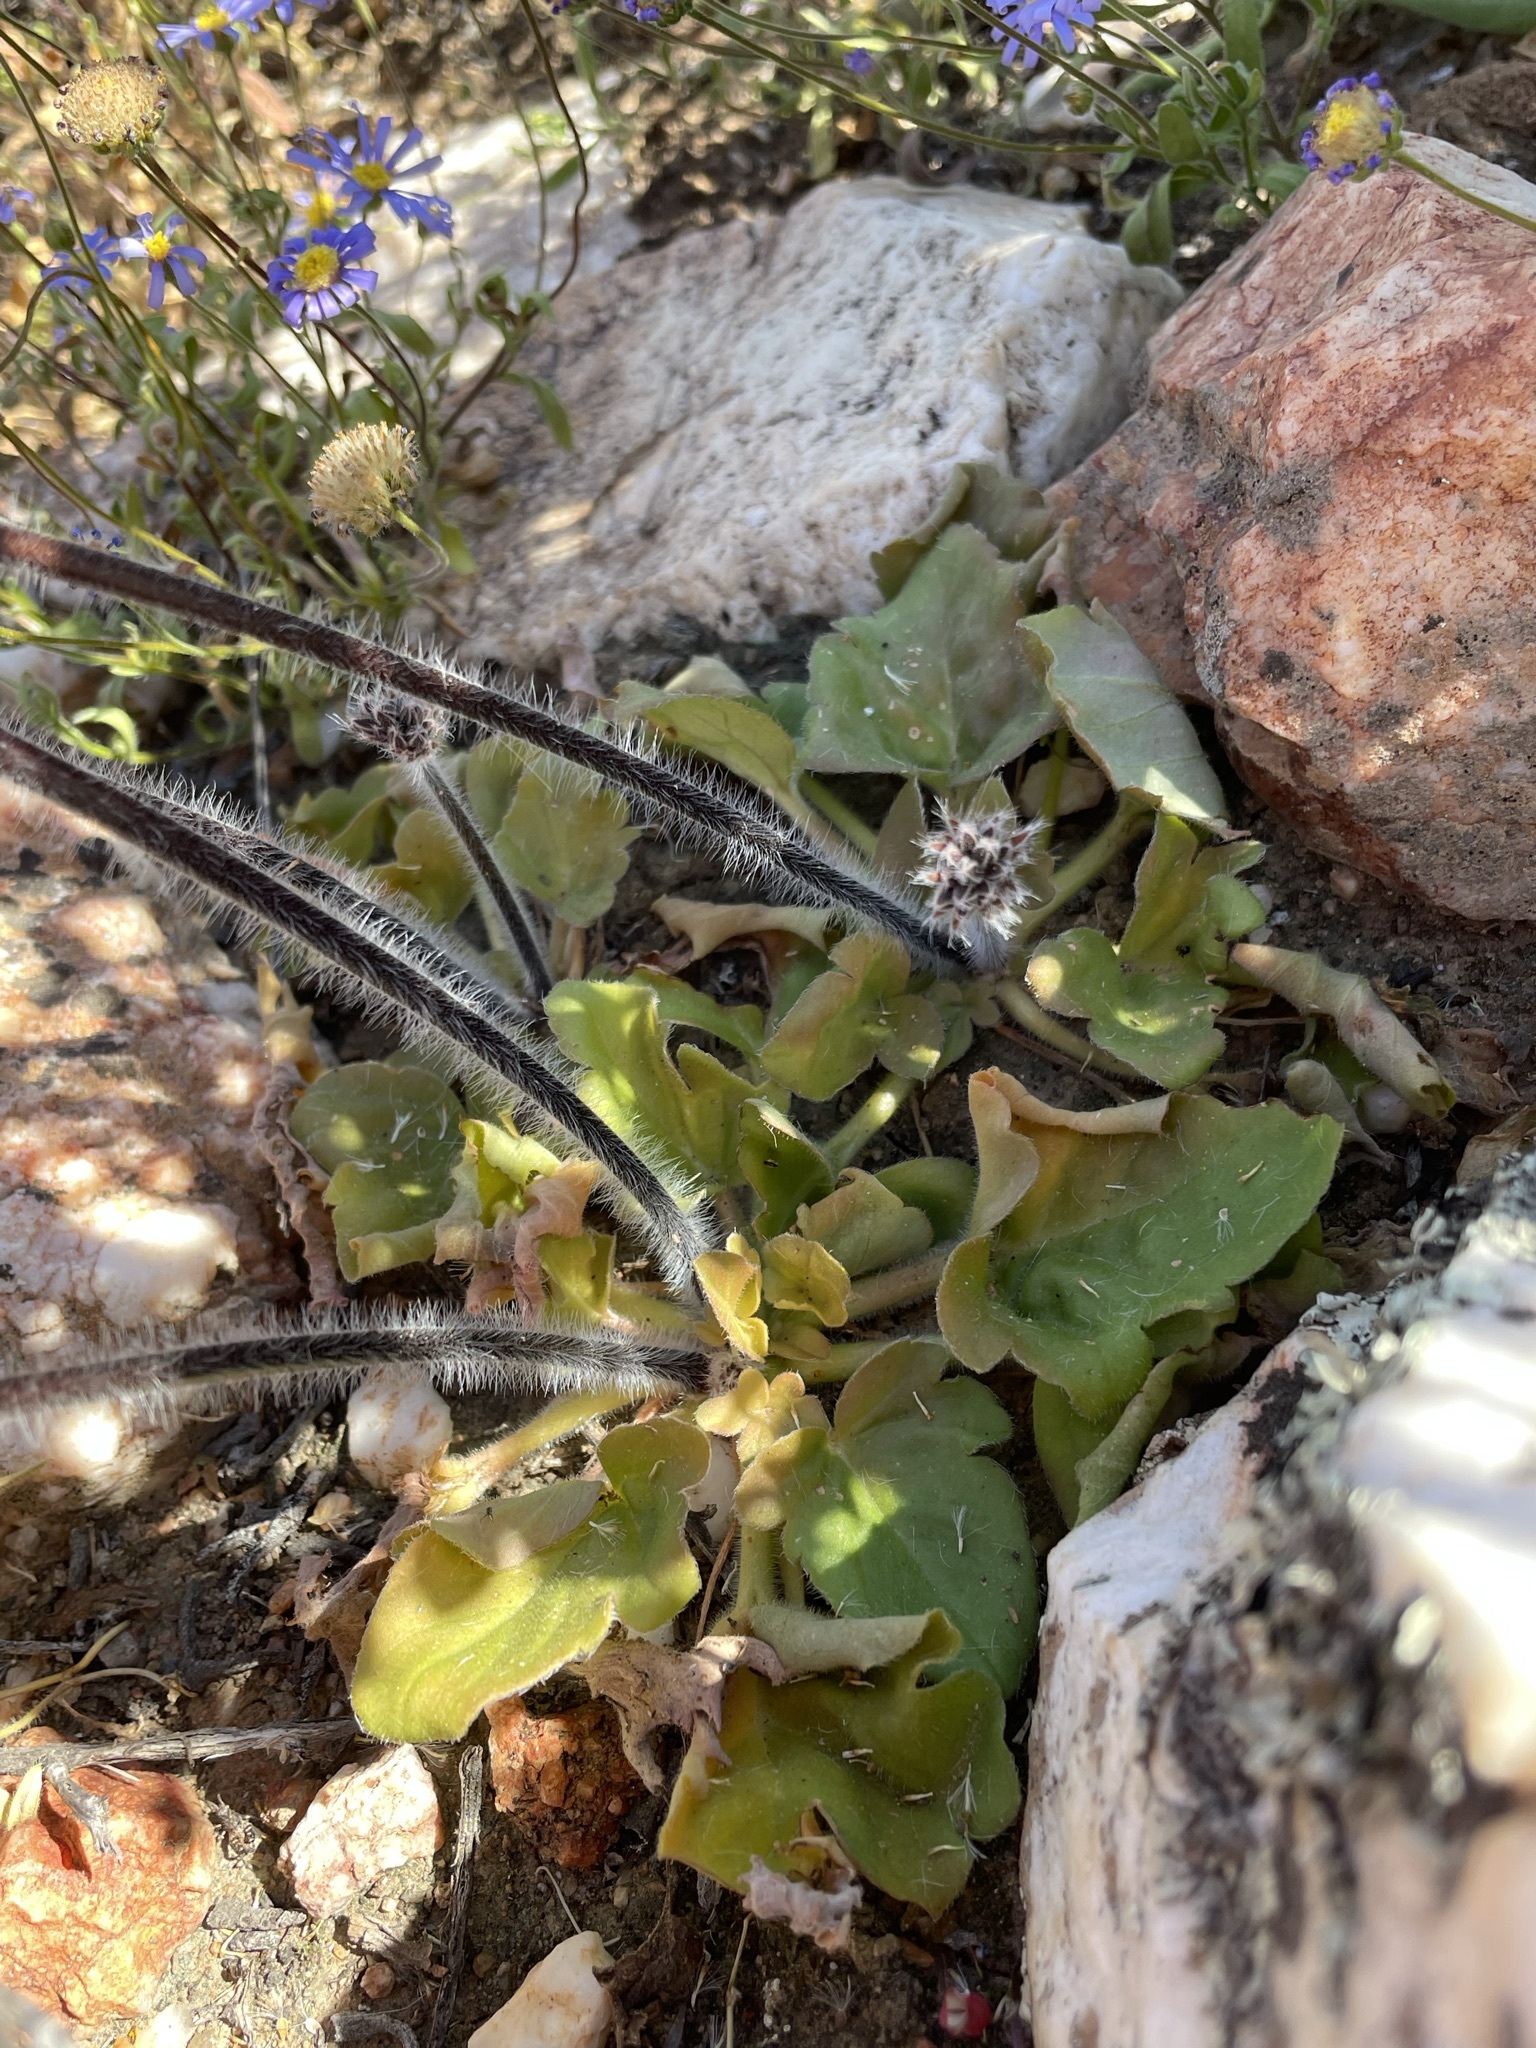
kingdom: Plantae
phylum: Tracheophyta
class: Magnoliopsida
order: Geraniales
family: Geraniaceae
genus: Pelargonium
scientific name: Pelargonium moniliforme
